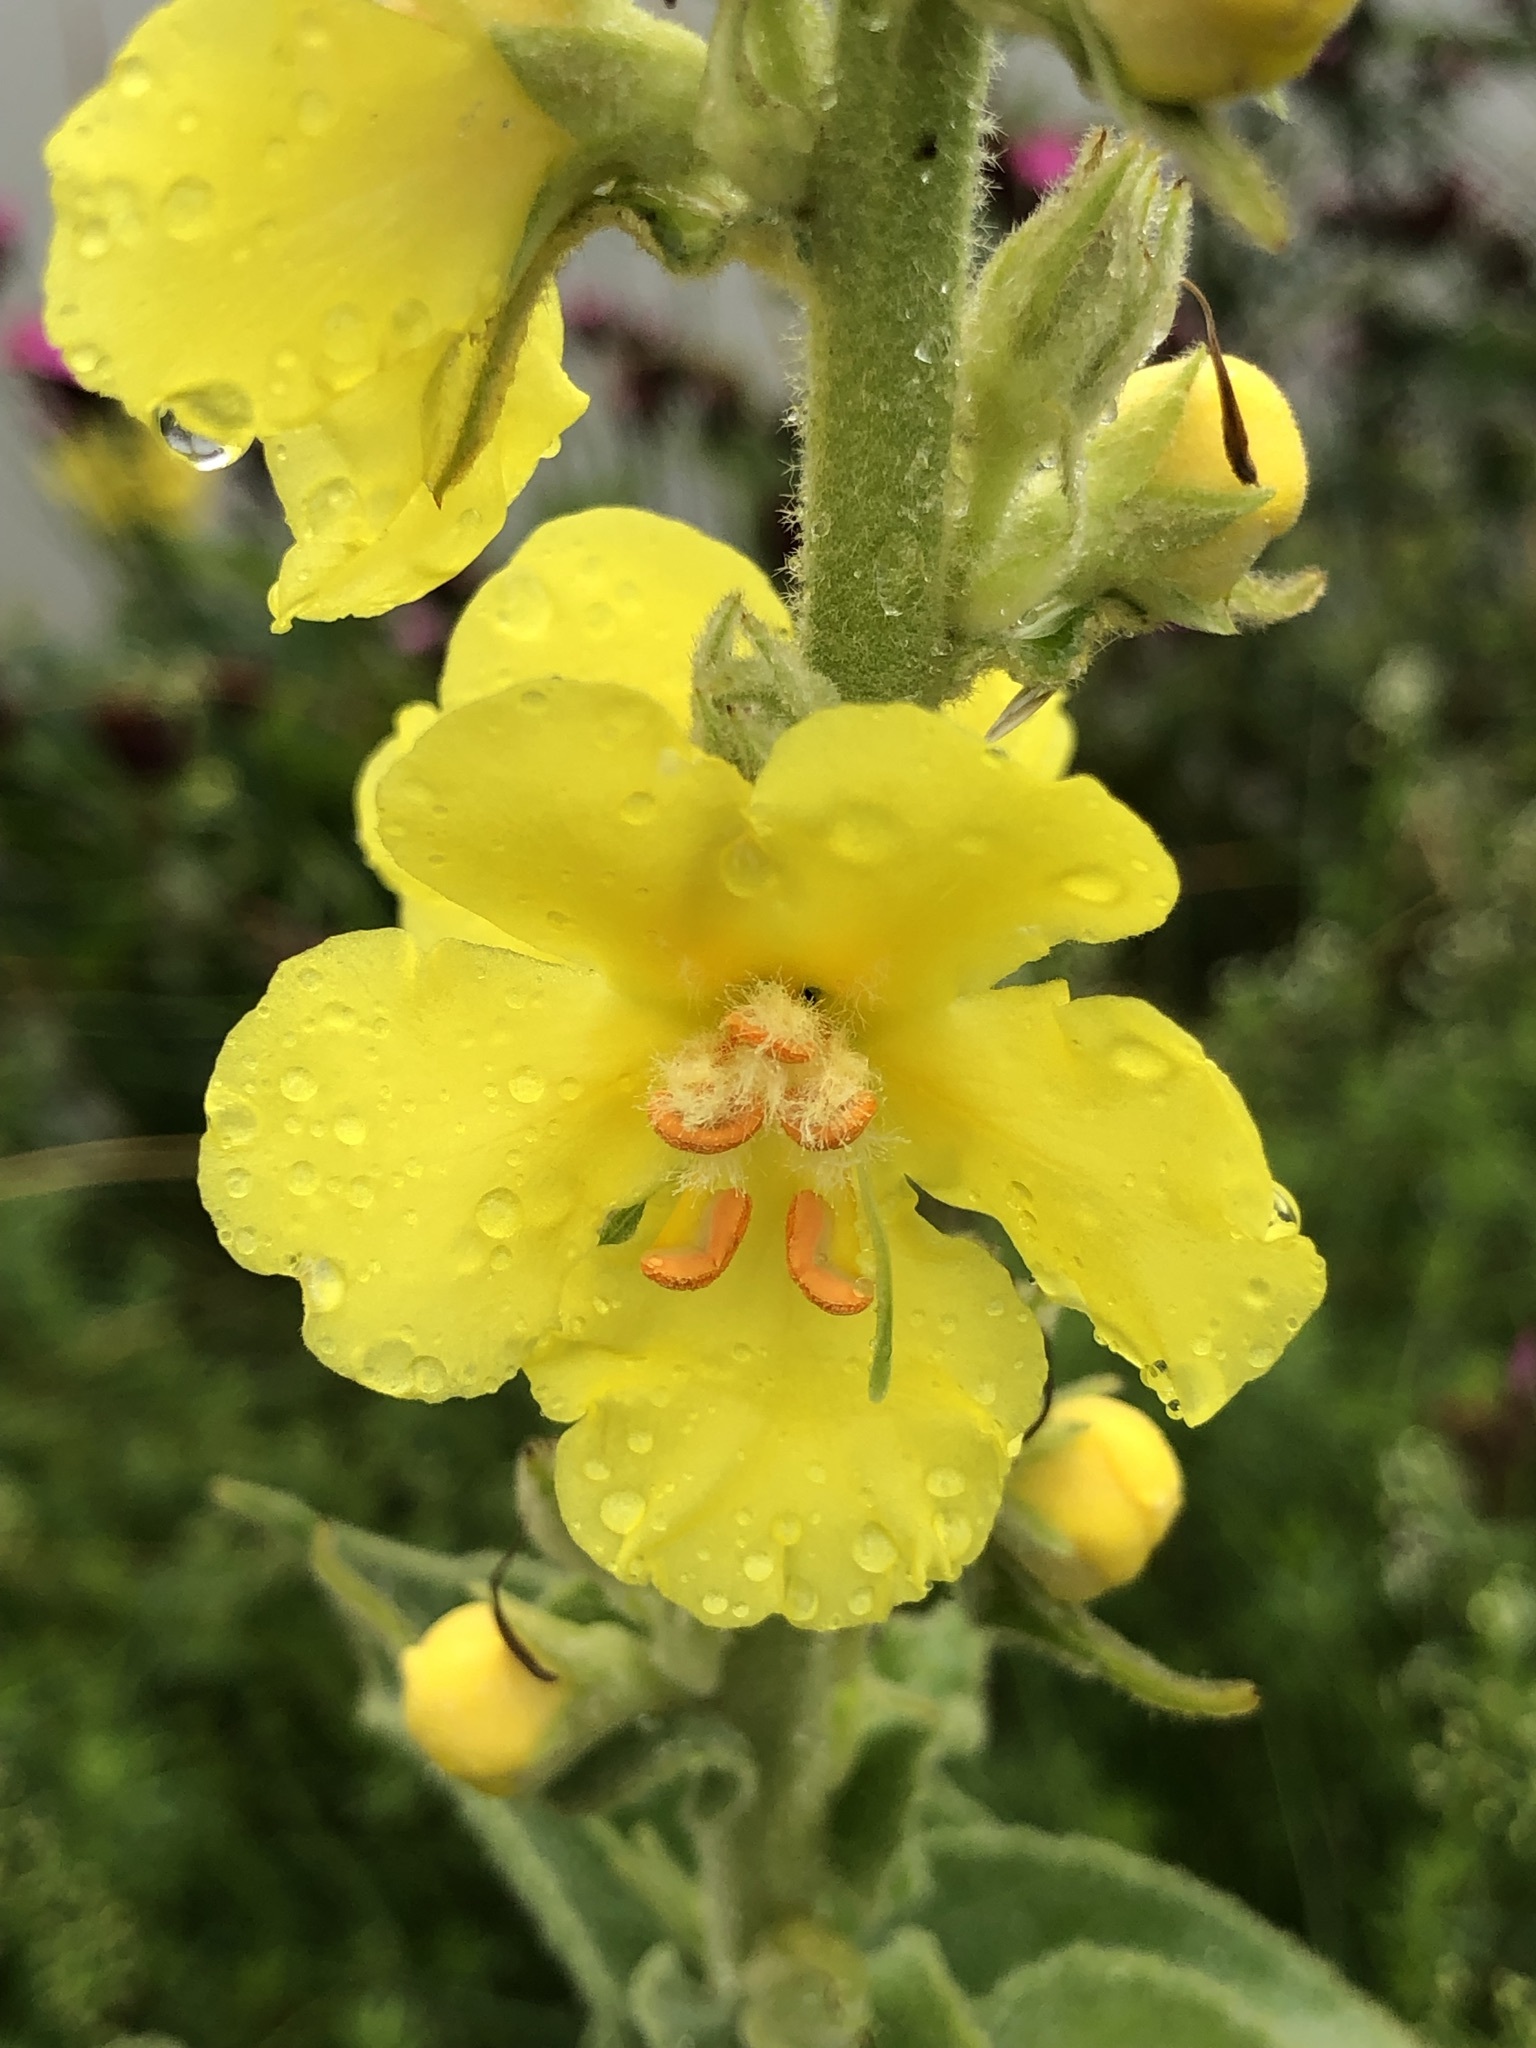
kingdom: Plantae
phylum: Tracheophyta
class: Magnoliopsida
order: Lamiales
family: Scrophulariaceae
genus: Verbascum
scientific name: Verbascum phlomoides
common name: Orange mullein
